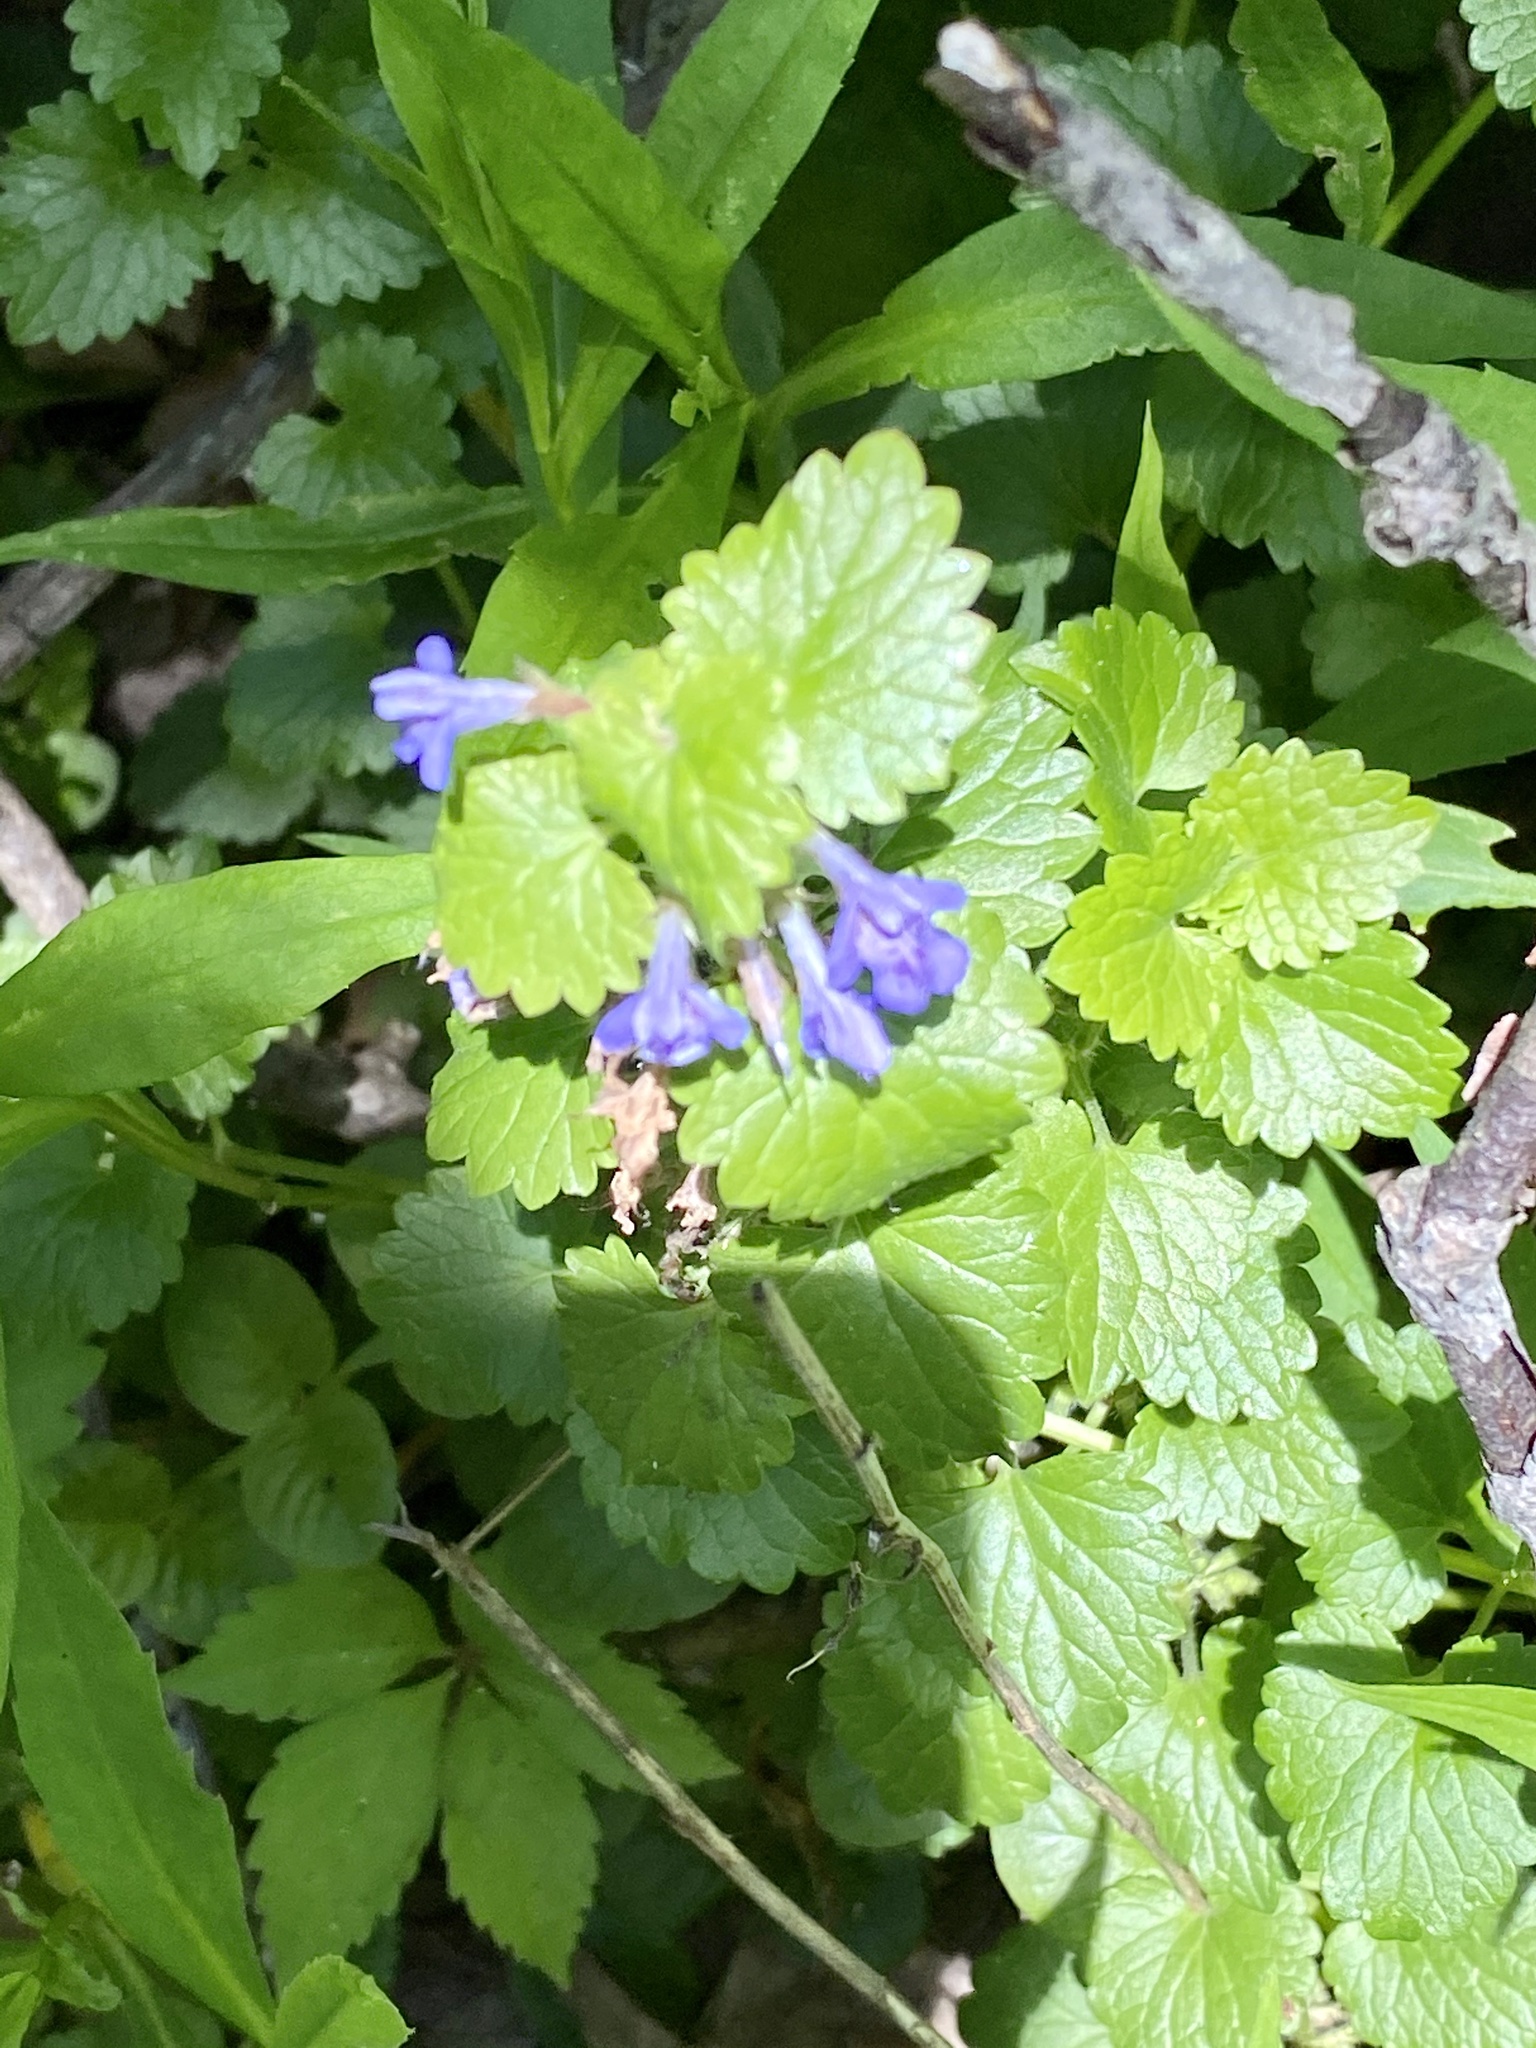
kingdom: Plantae
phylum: Tracheophyta
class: Magnoliopsida
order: Lamiales
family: Lamiaceae
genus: Glechoma
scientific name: Glechoma hederacea
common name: Ground ivy
